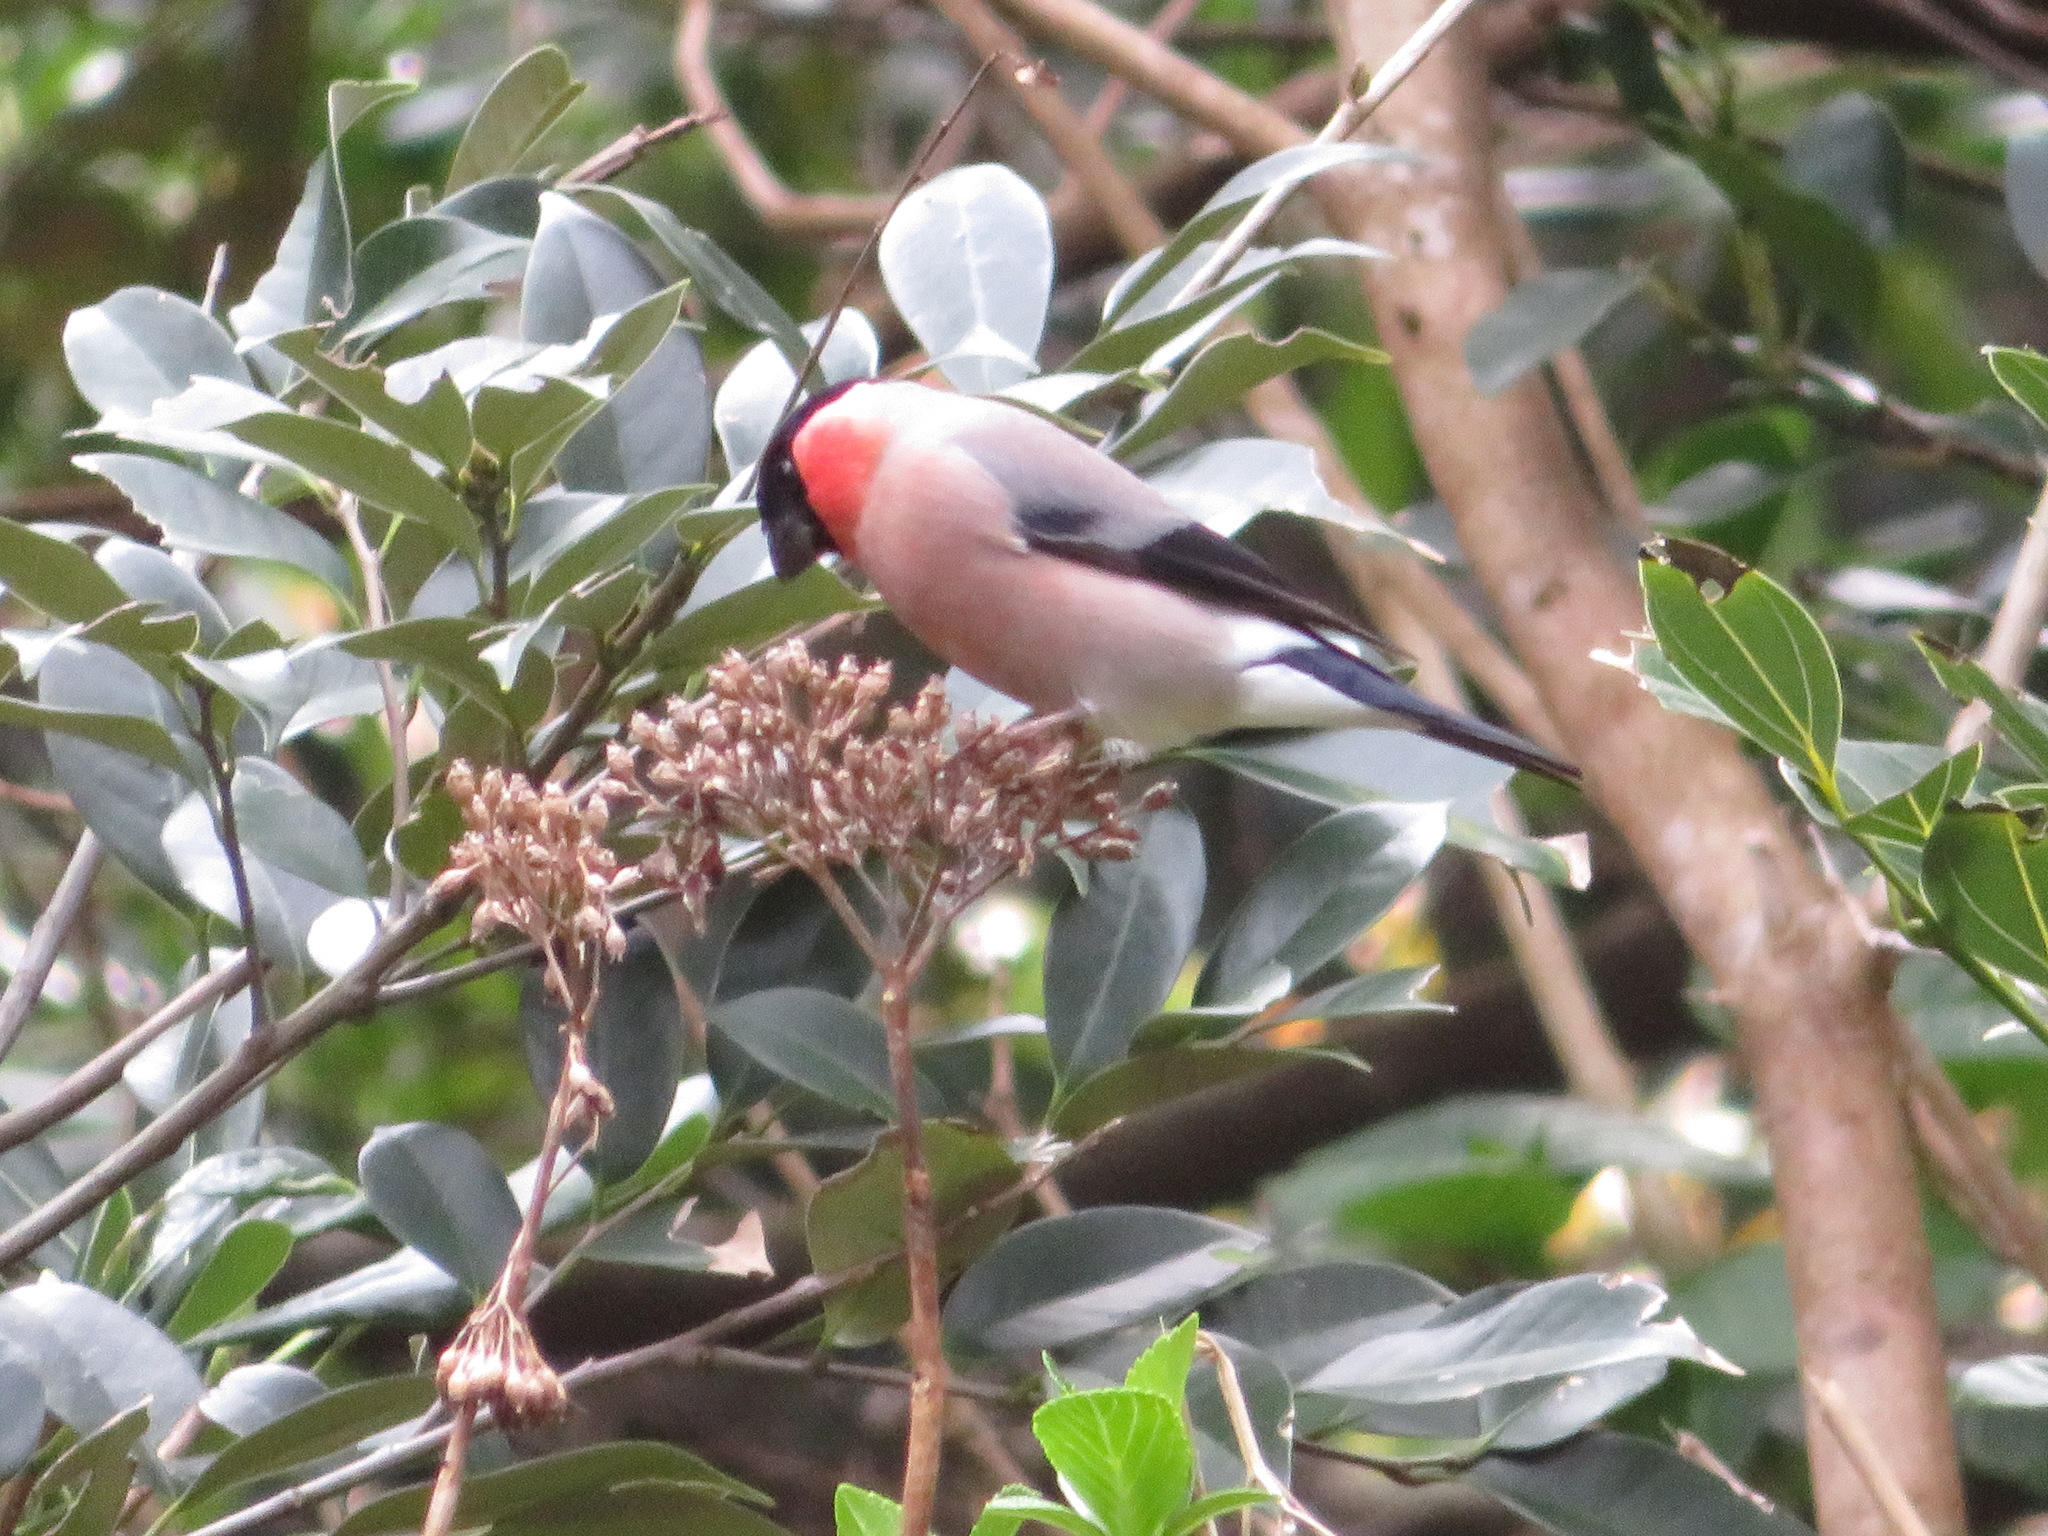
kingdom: Animalia
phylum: Chordata
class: Aves
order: Passeriformes
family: Fringillidae
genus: Pyrrhula
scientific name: Pyrrhula pyrrhula
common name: Eurasian bullfinch
